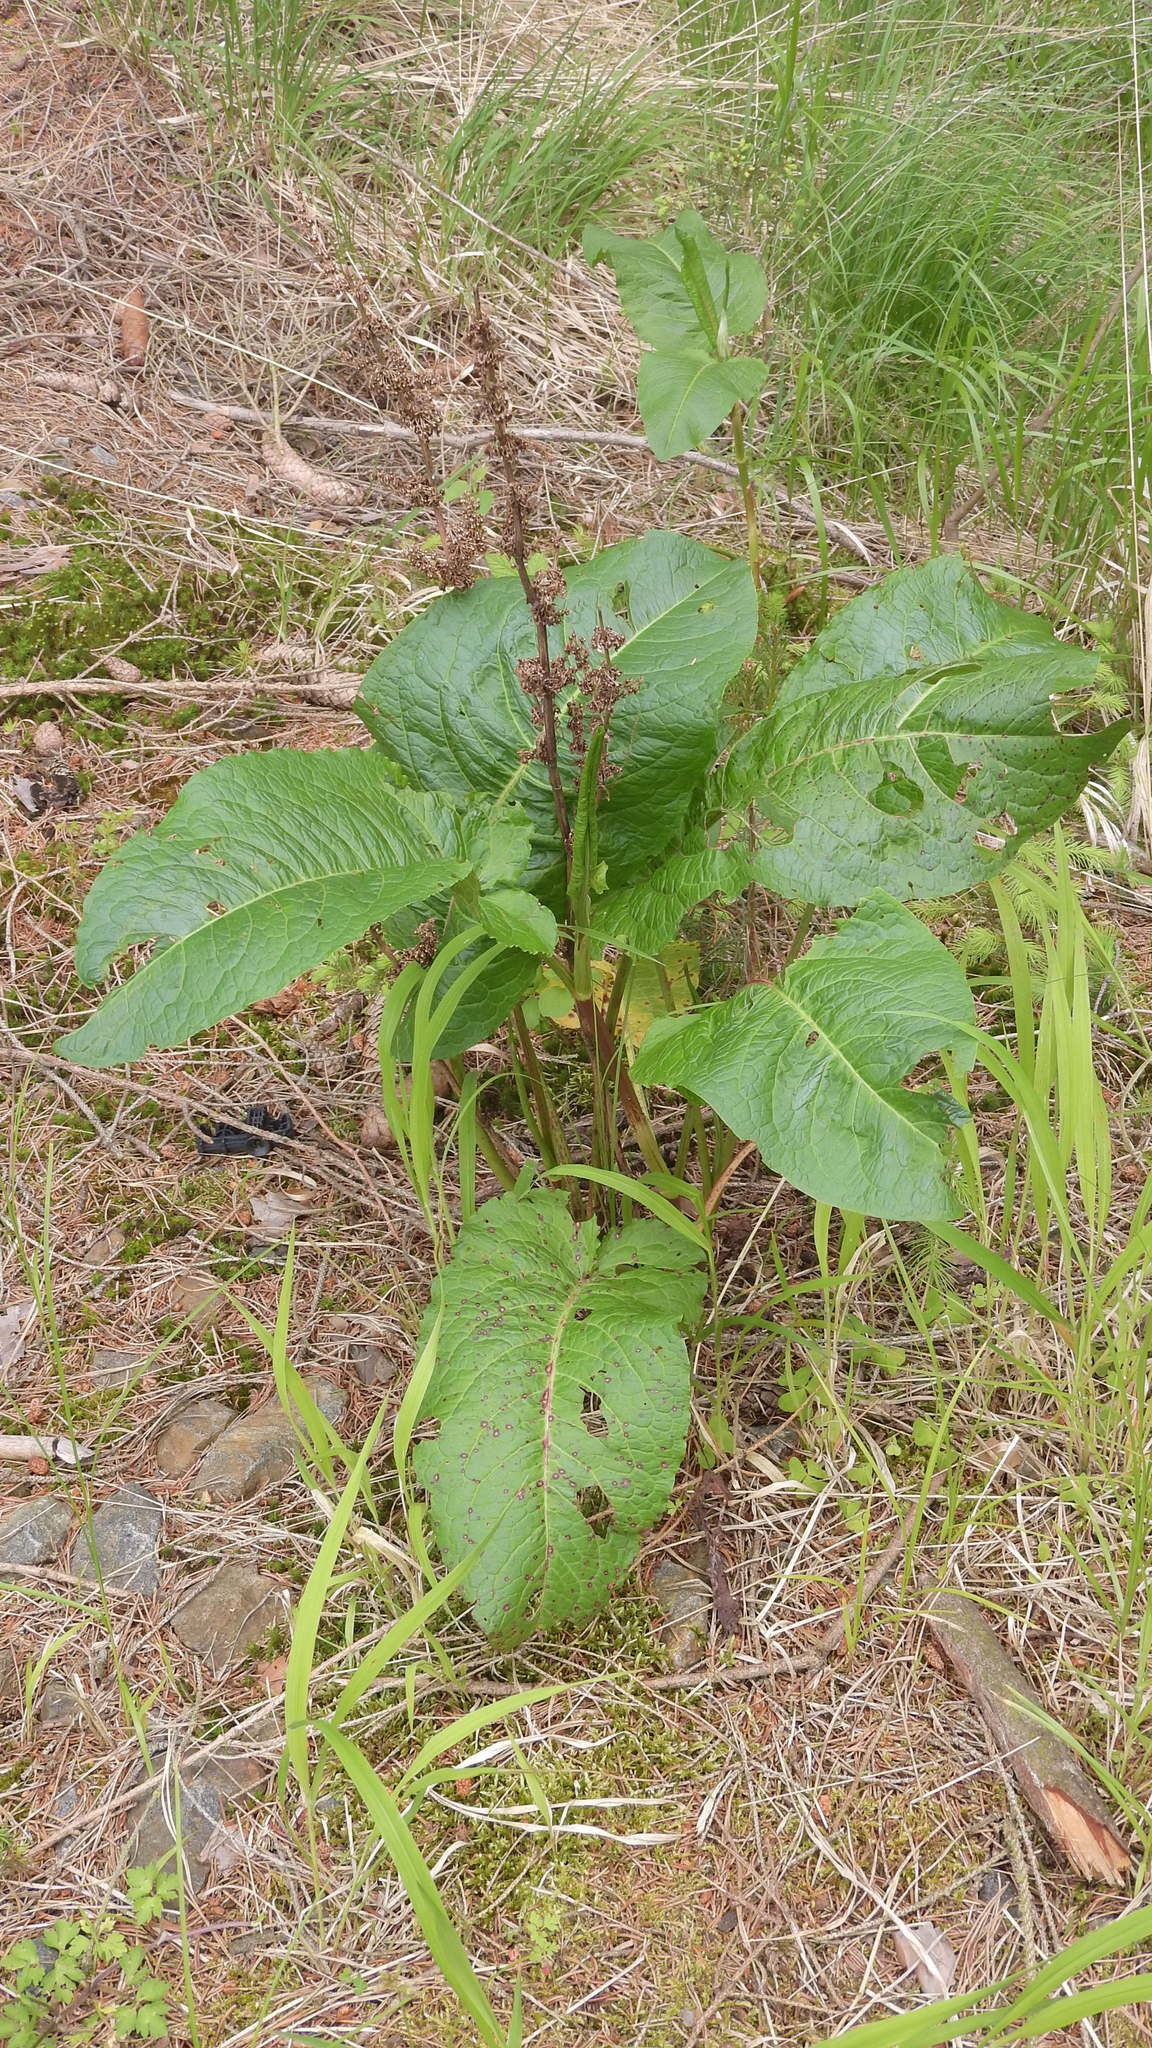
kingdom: Plantae
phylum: Tracheophyta
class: Magnoliopsida
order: Caryophyllales
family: Polygonaceae
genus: Rumex
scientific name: Rumex obtusifolius
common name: Bitter dock
